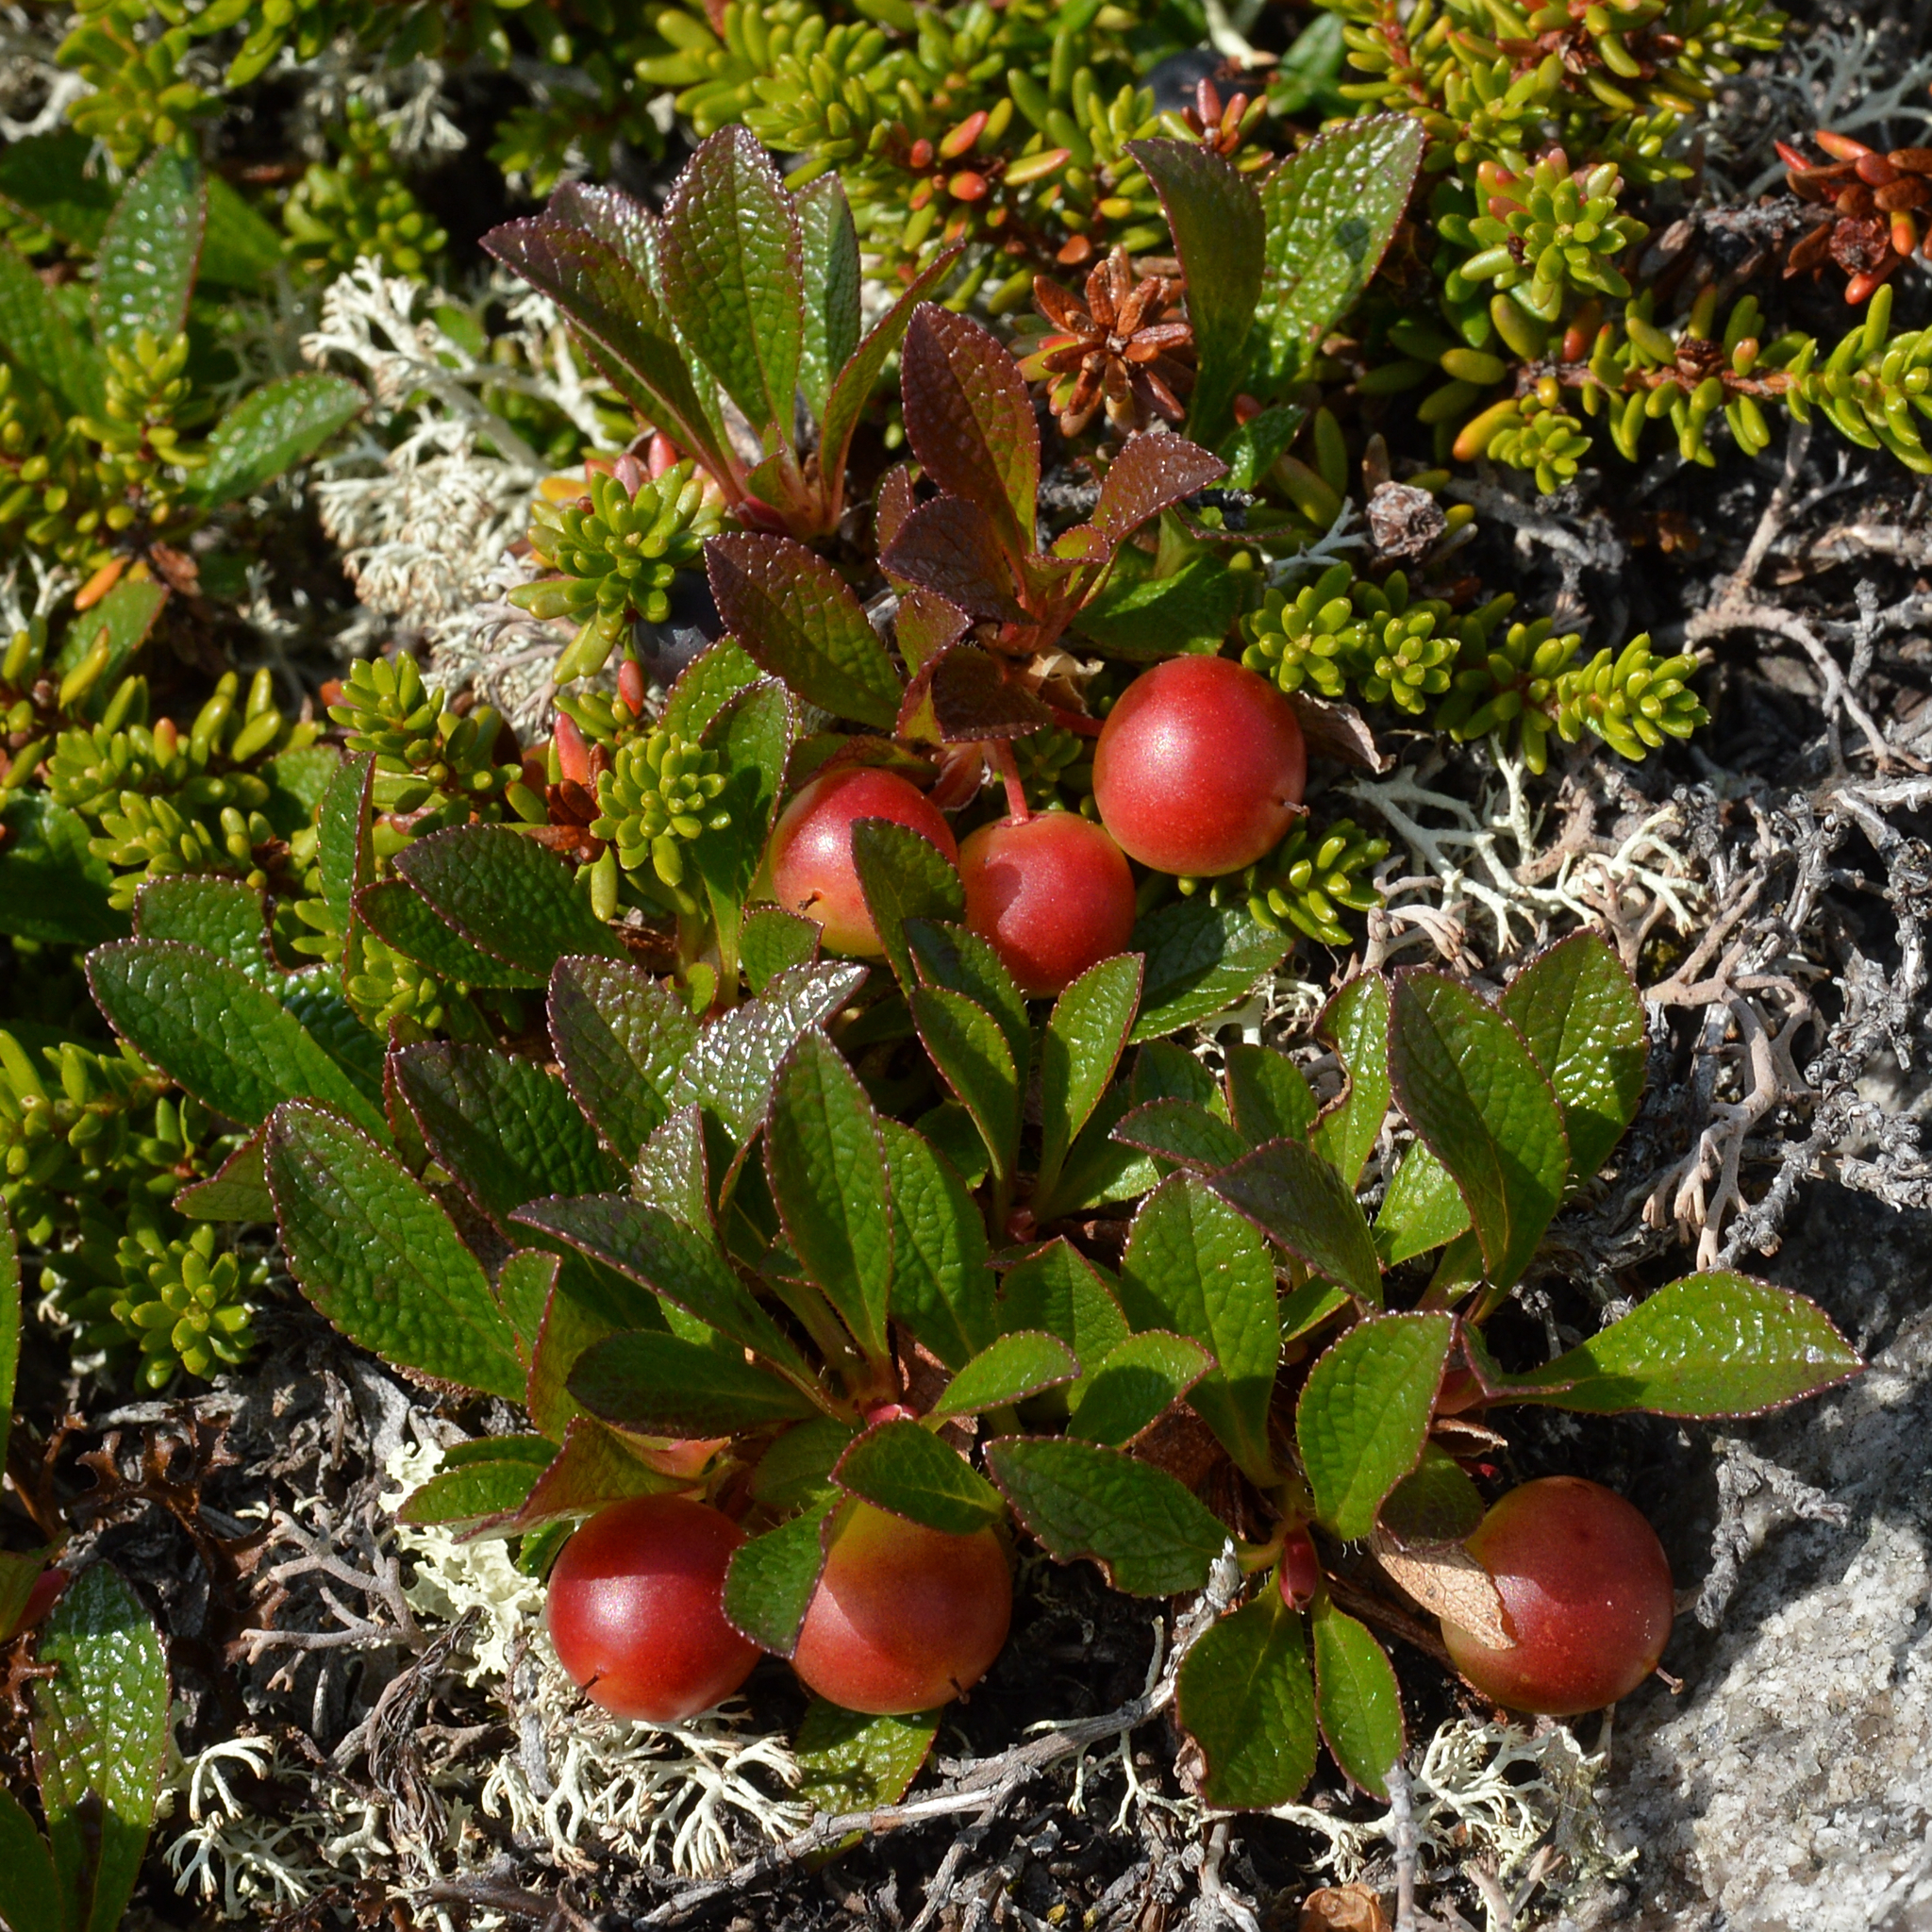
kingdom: Plantae
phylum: Tracheophyta
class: Magnoliopsida
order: Ericales
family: Ericaceae
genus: Arctostaphylos
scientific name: Arctostaphylos alpinus
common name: Alpine bearberry
